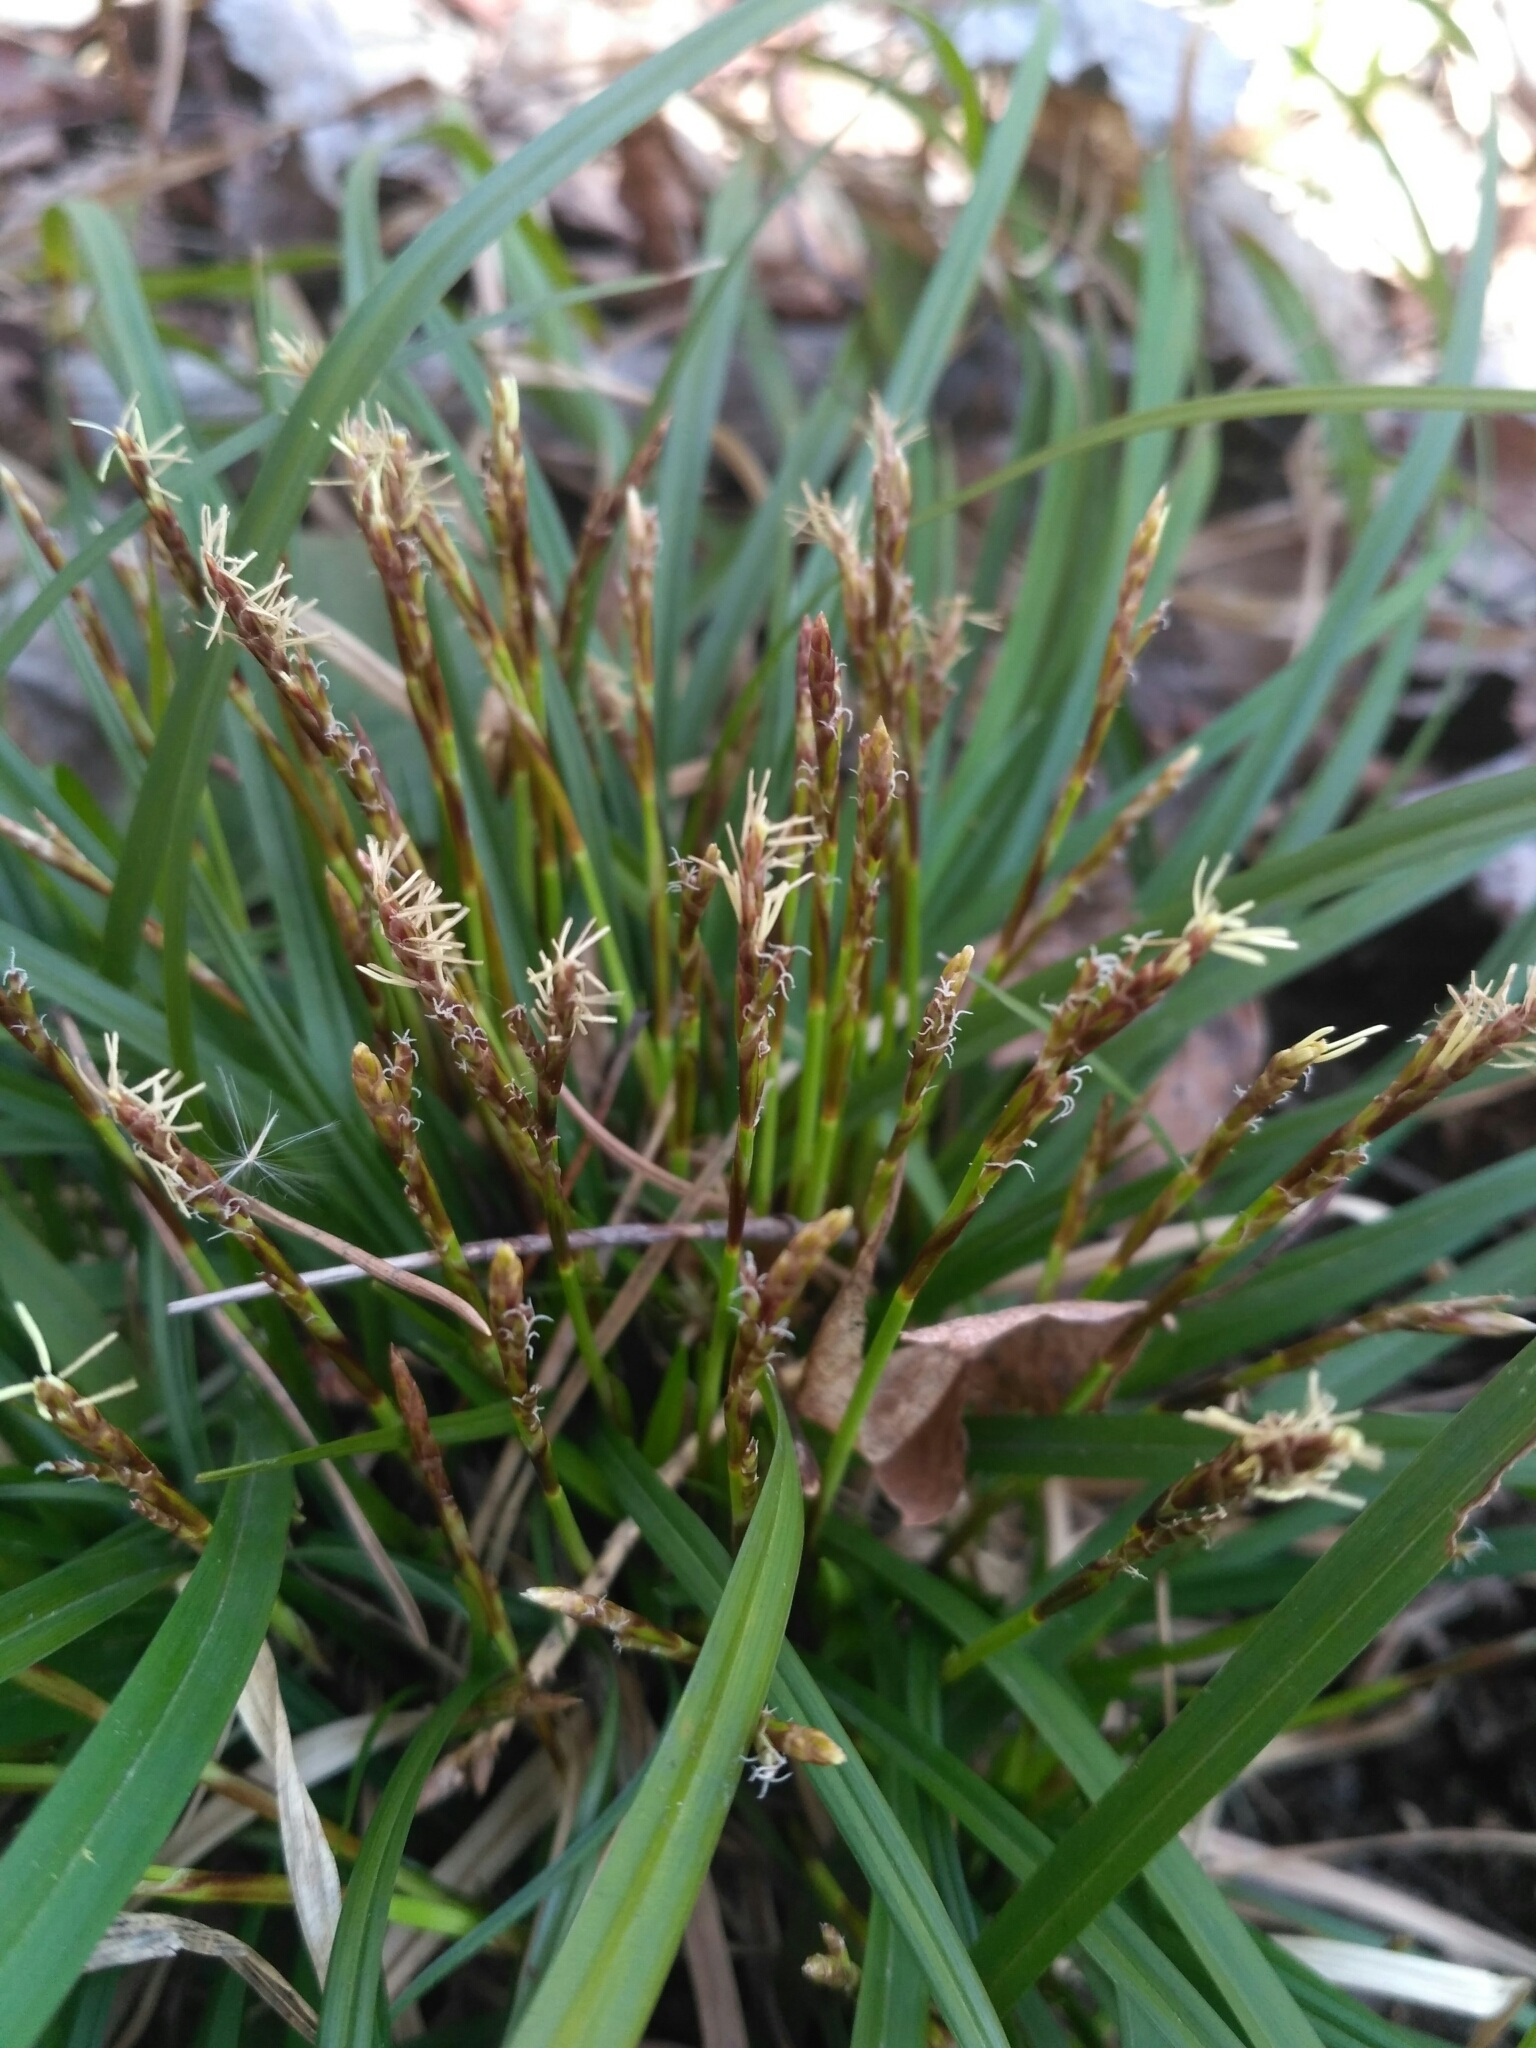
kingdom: Plantae
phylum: Tracheophyta
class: Liliopsida
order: Poales
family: Cyperaceae
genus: Carex
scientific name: Carex digitata
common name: Fingered sedge
